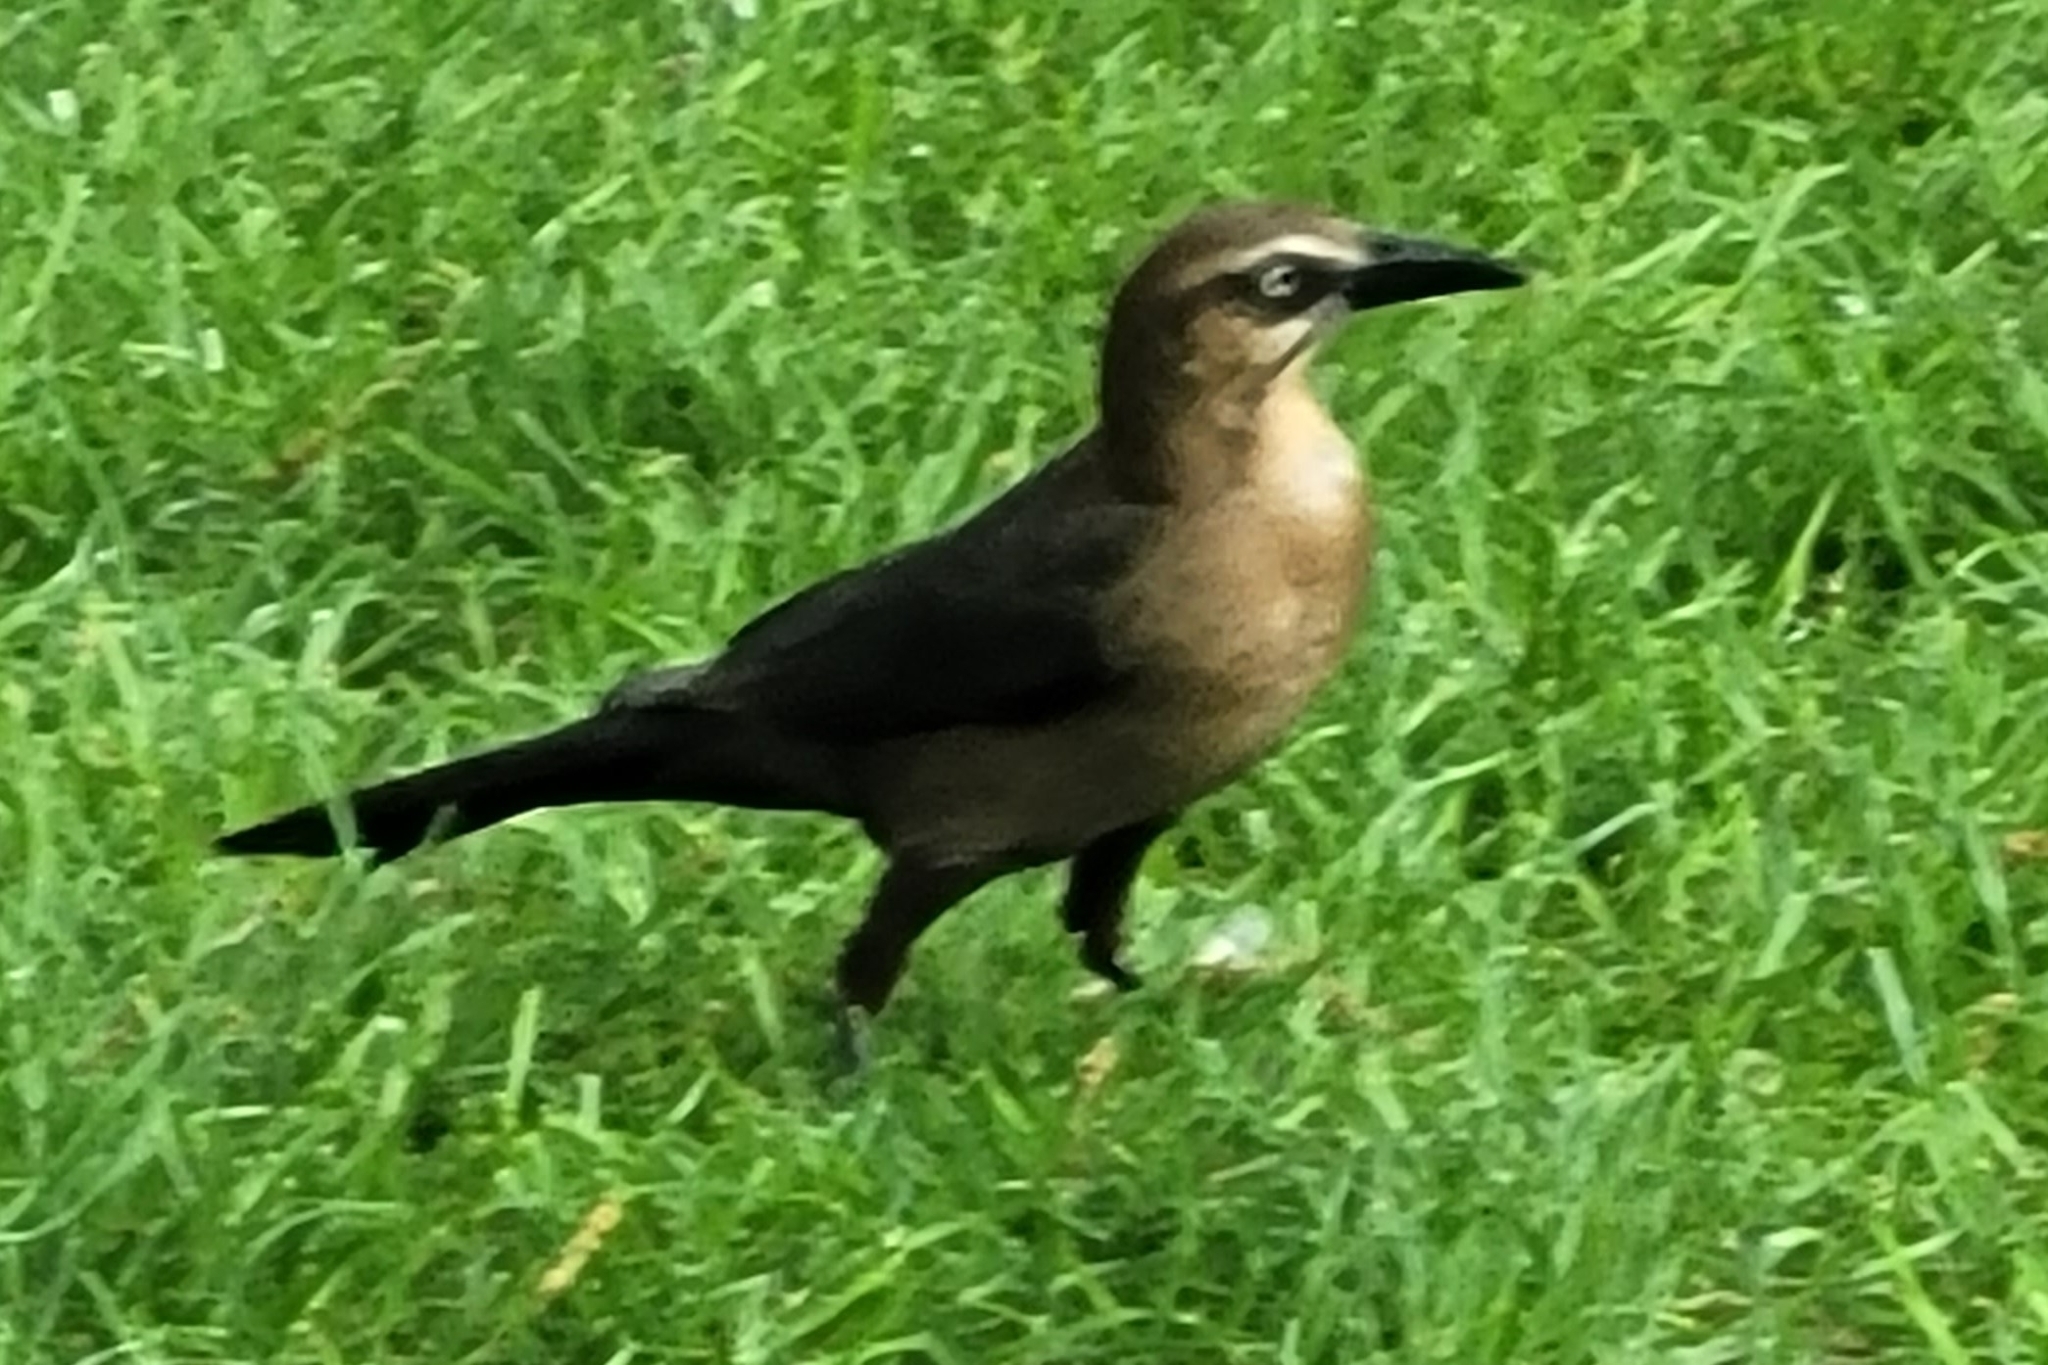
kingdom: Animalia
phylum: Chordata
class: Aves
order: Passeriformes
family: Icteridae
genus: Quiscalus
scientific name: Quiscalus mexicanus
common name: Great-tailed grackle
